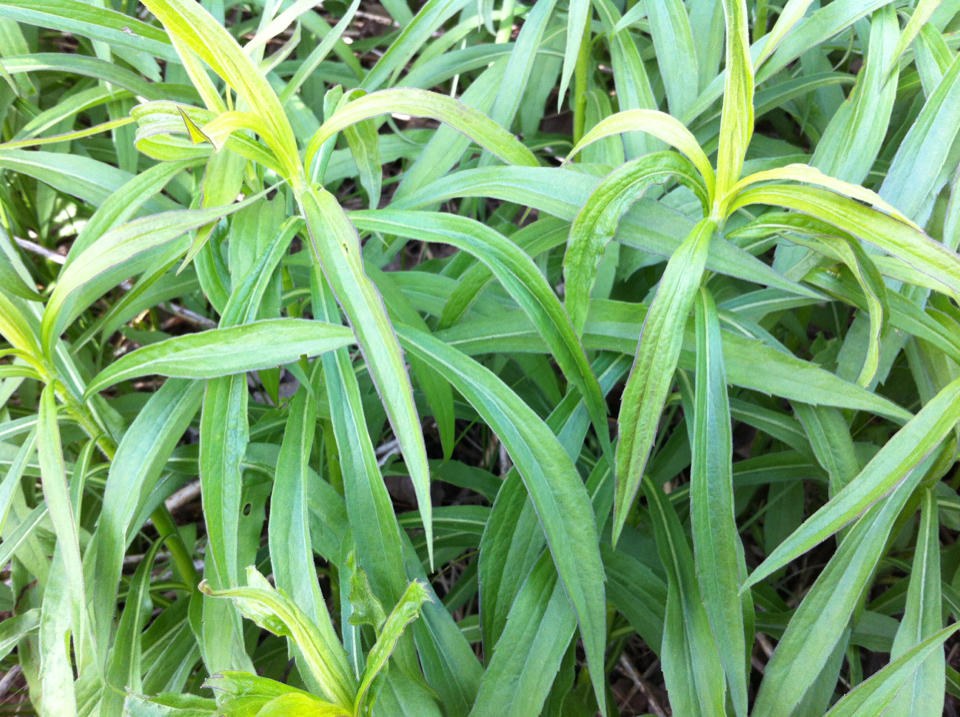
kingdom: Plantae
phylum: Tracheophyta
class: Magnoliopsida
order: Asterales
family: Asteraceae
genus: Solidago
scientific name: Solidago altissima
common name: Late goldenrod
